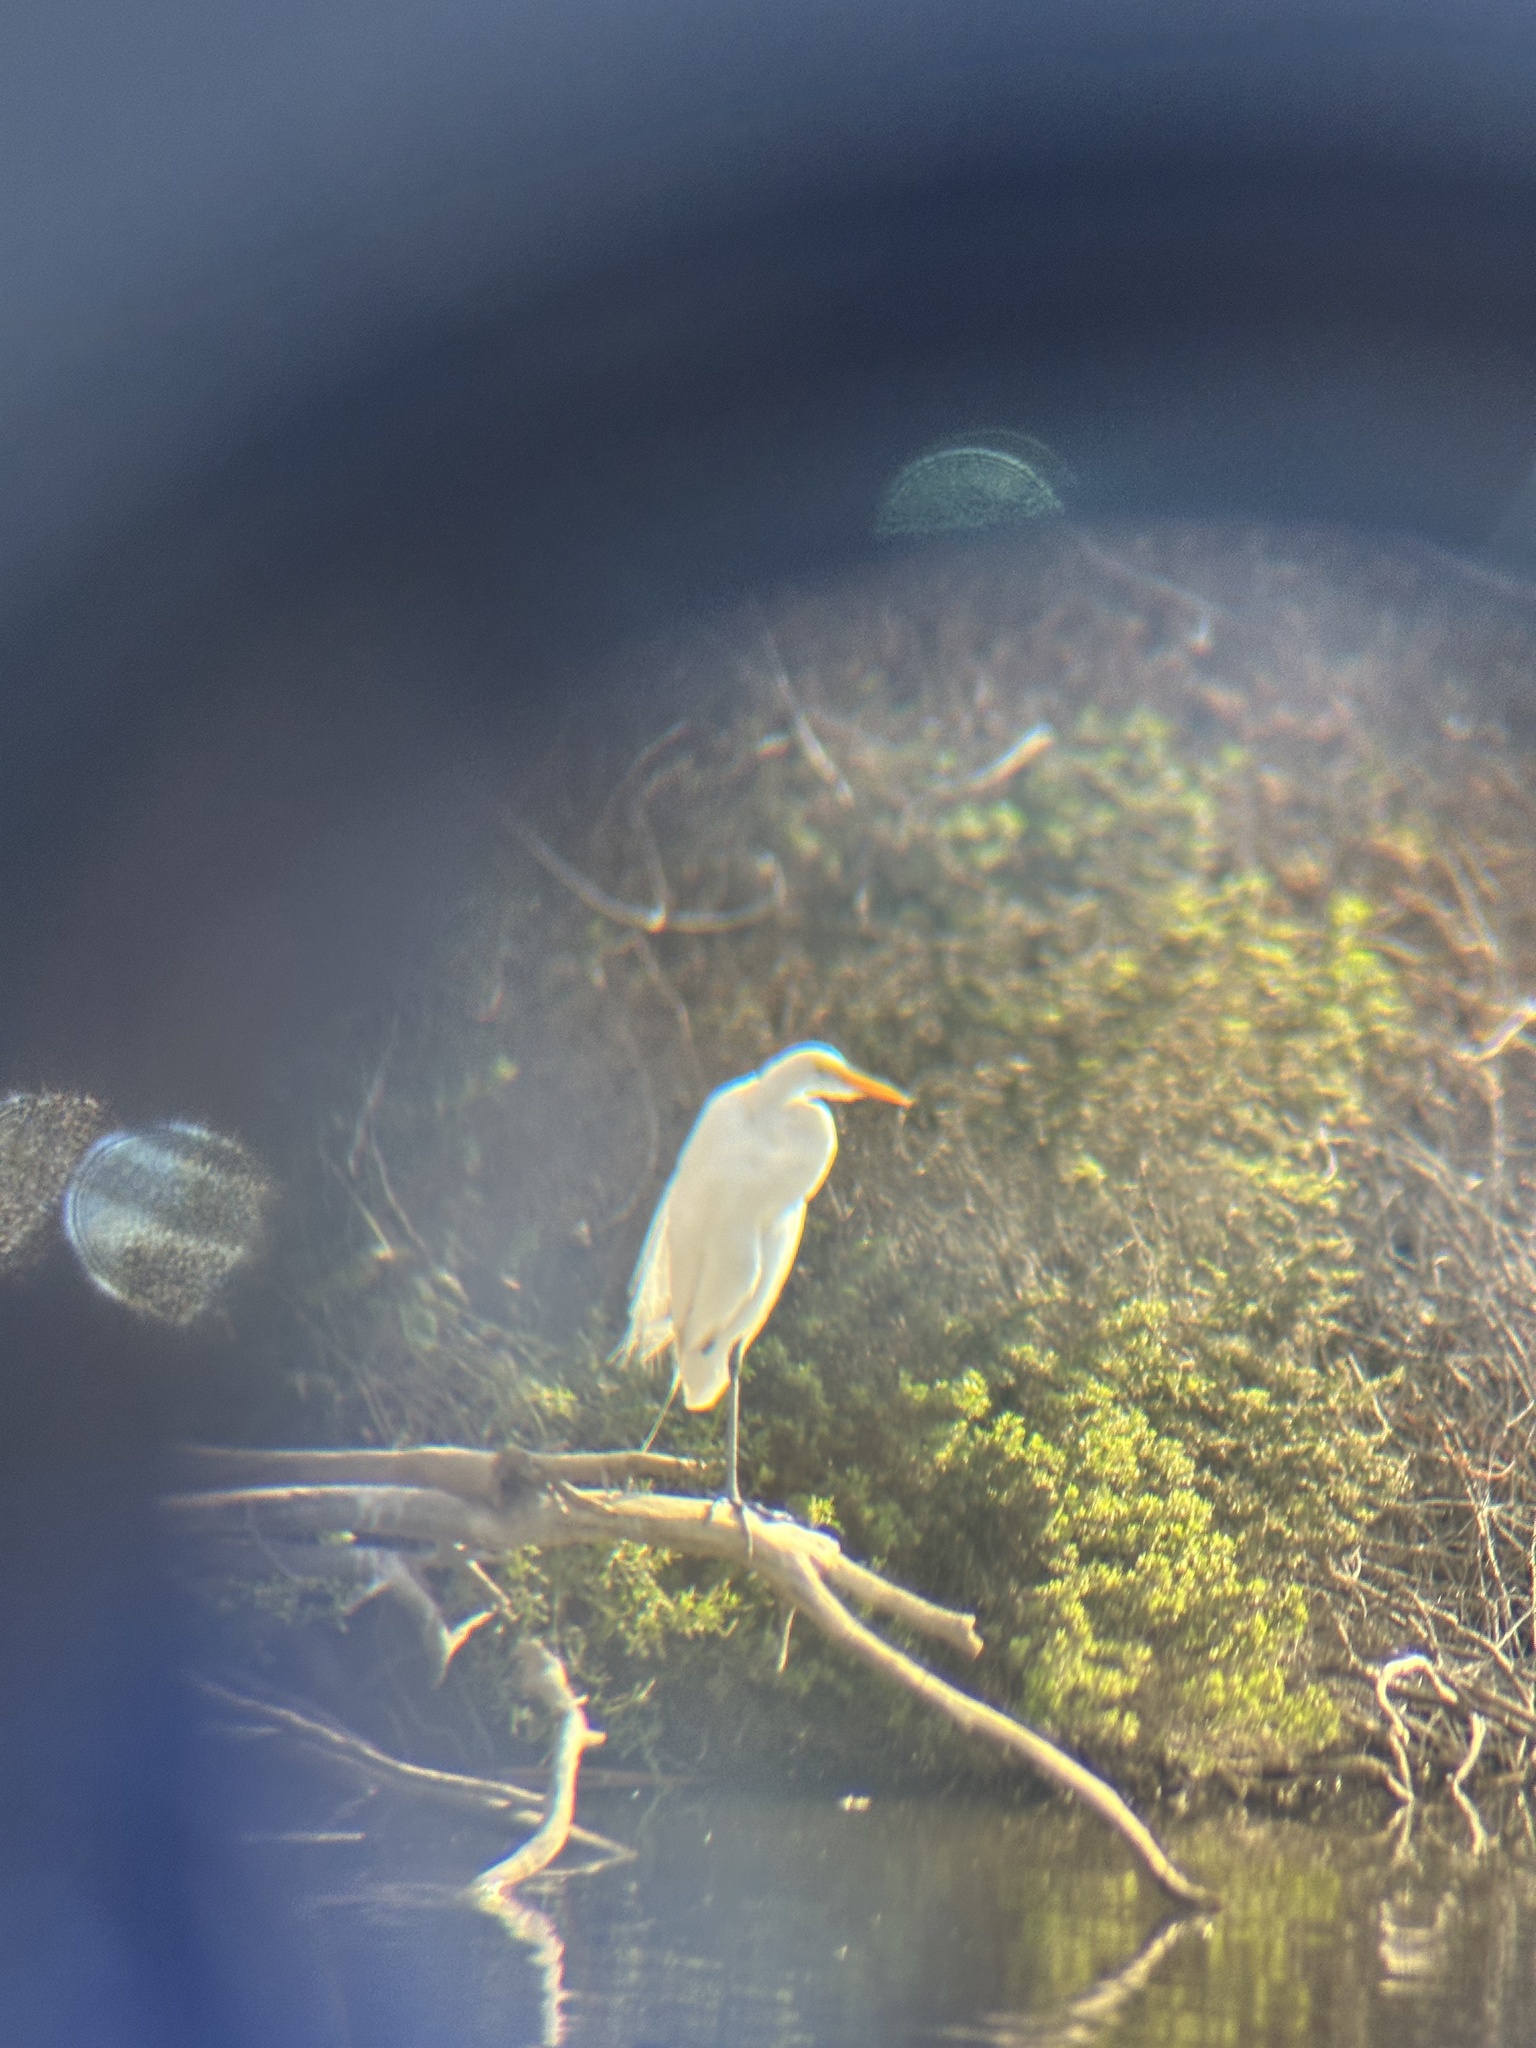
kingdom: Animalia
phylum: Chordata
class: Aves
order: Pelecaniformes
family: Ardeidae
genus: Ardea
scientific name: Ardea alba
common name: Great egret
